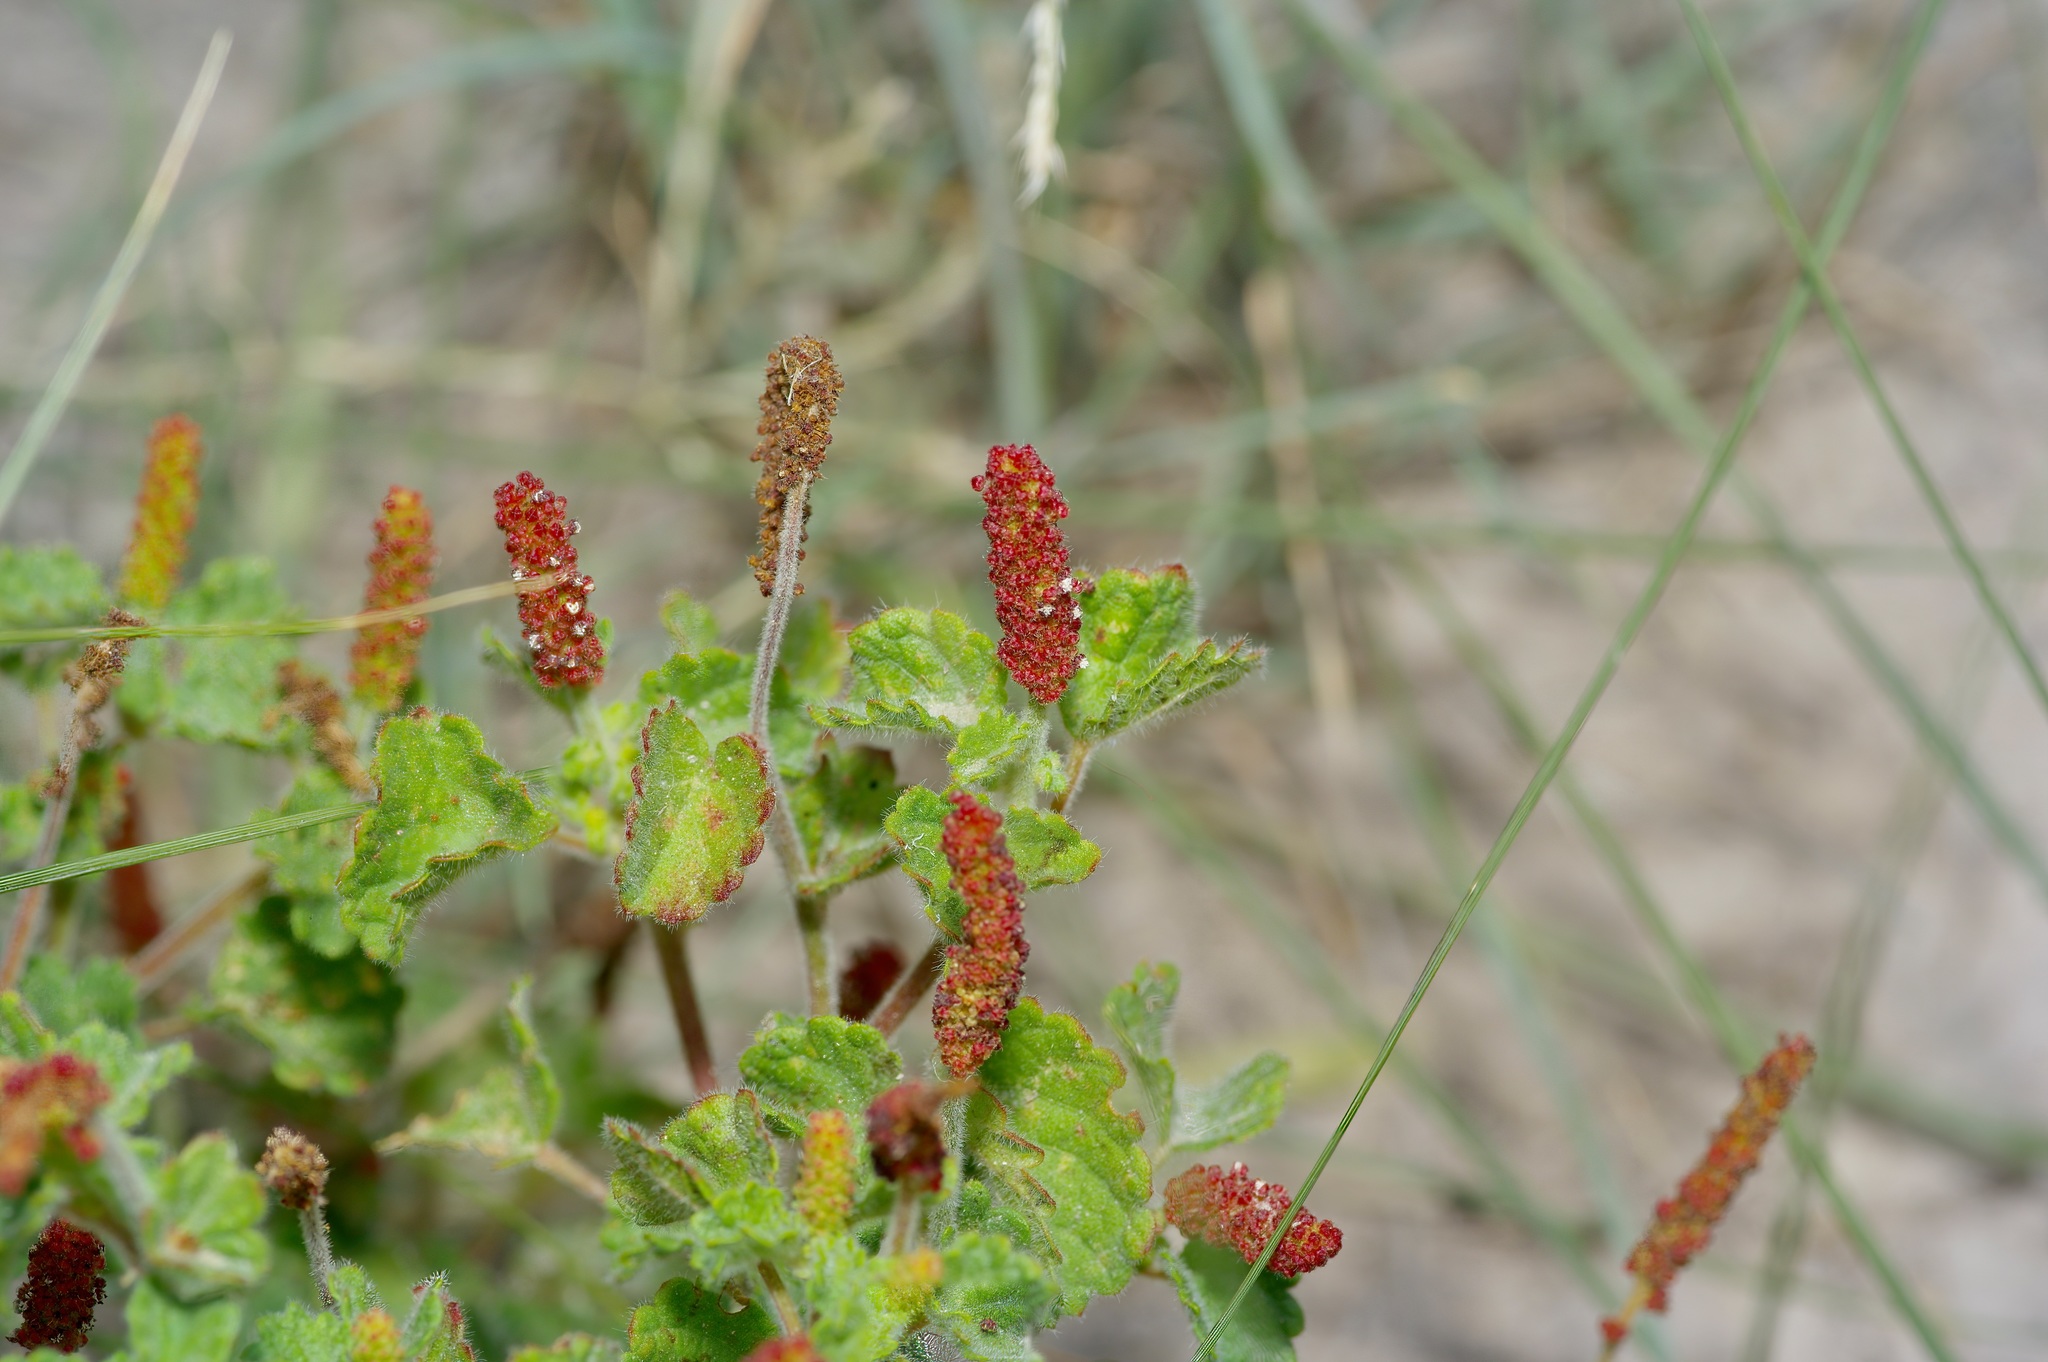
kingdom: Plantae
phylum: Tracheophyta
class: Magnoliopsida
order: Malpighiales
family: Euphorbiaceae
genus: Acalypha
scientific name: Acalypha monostachya
